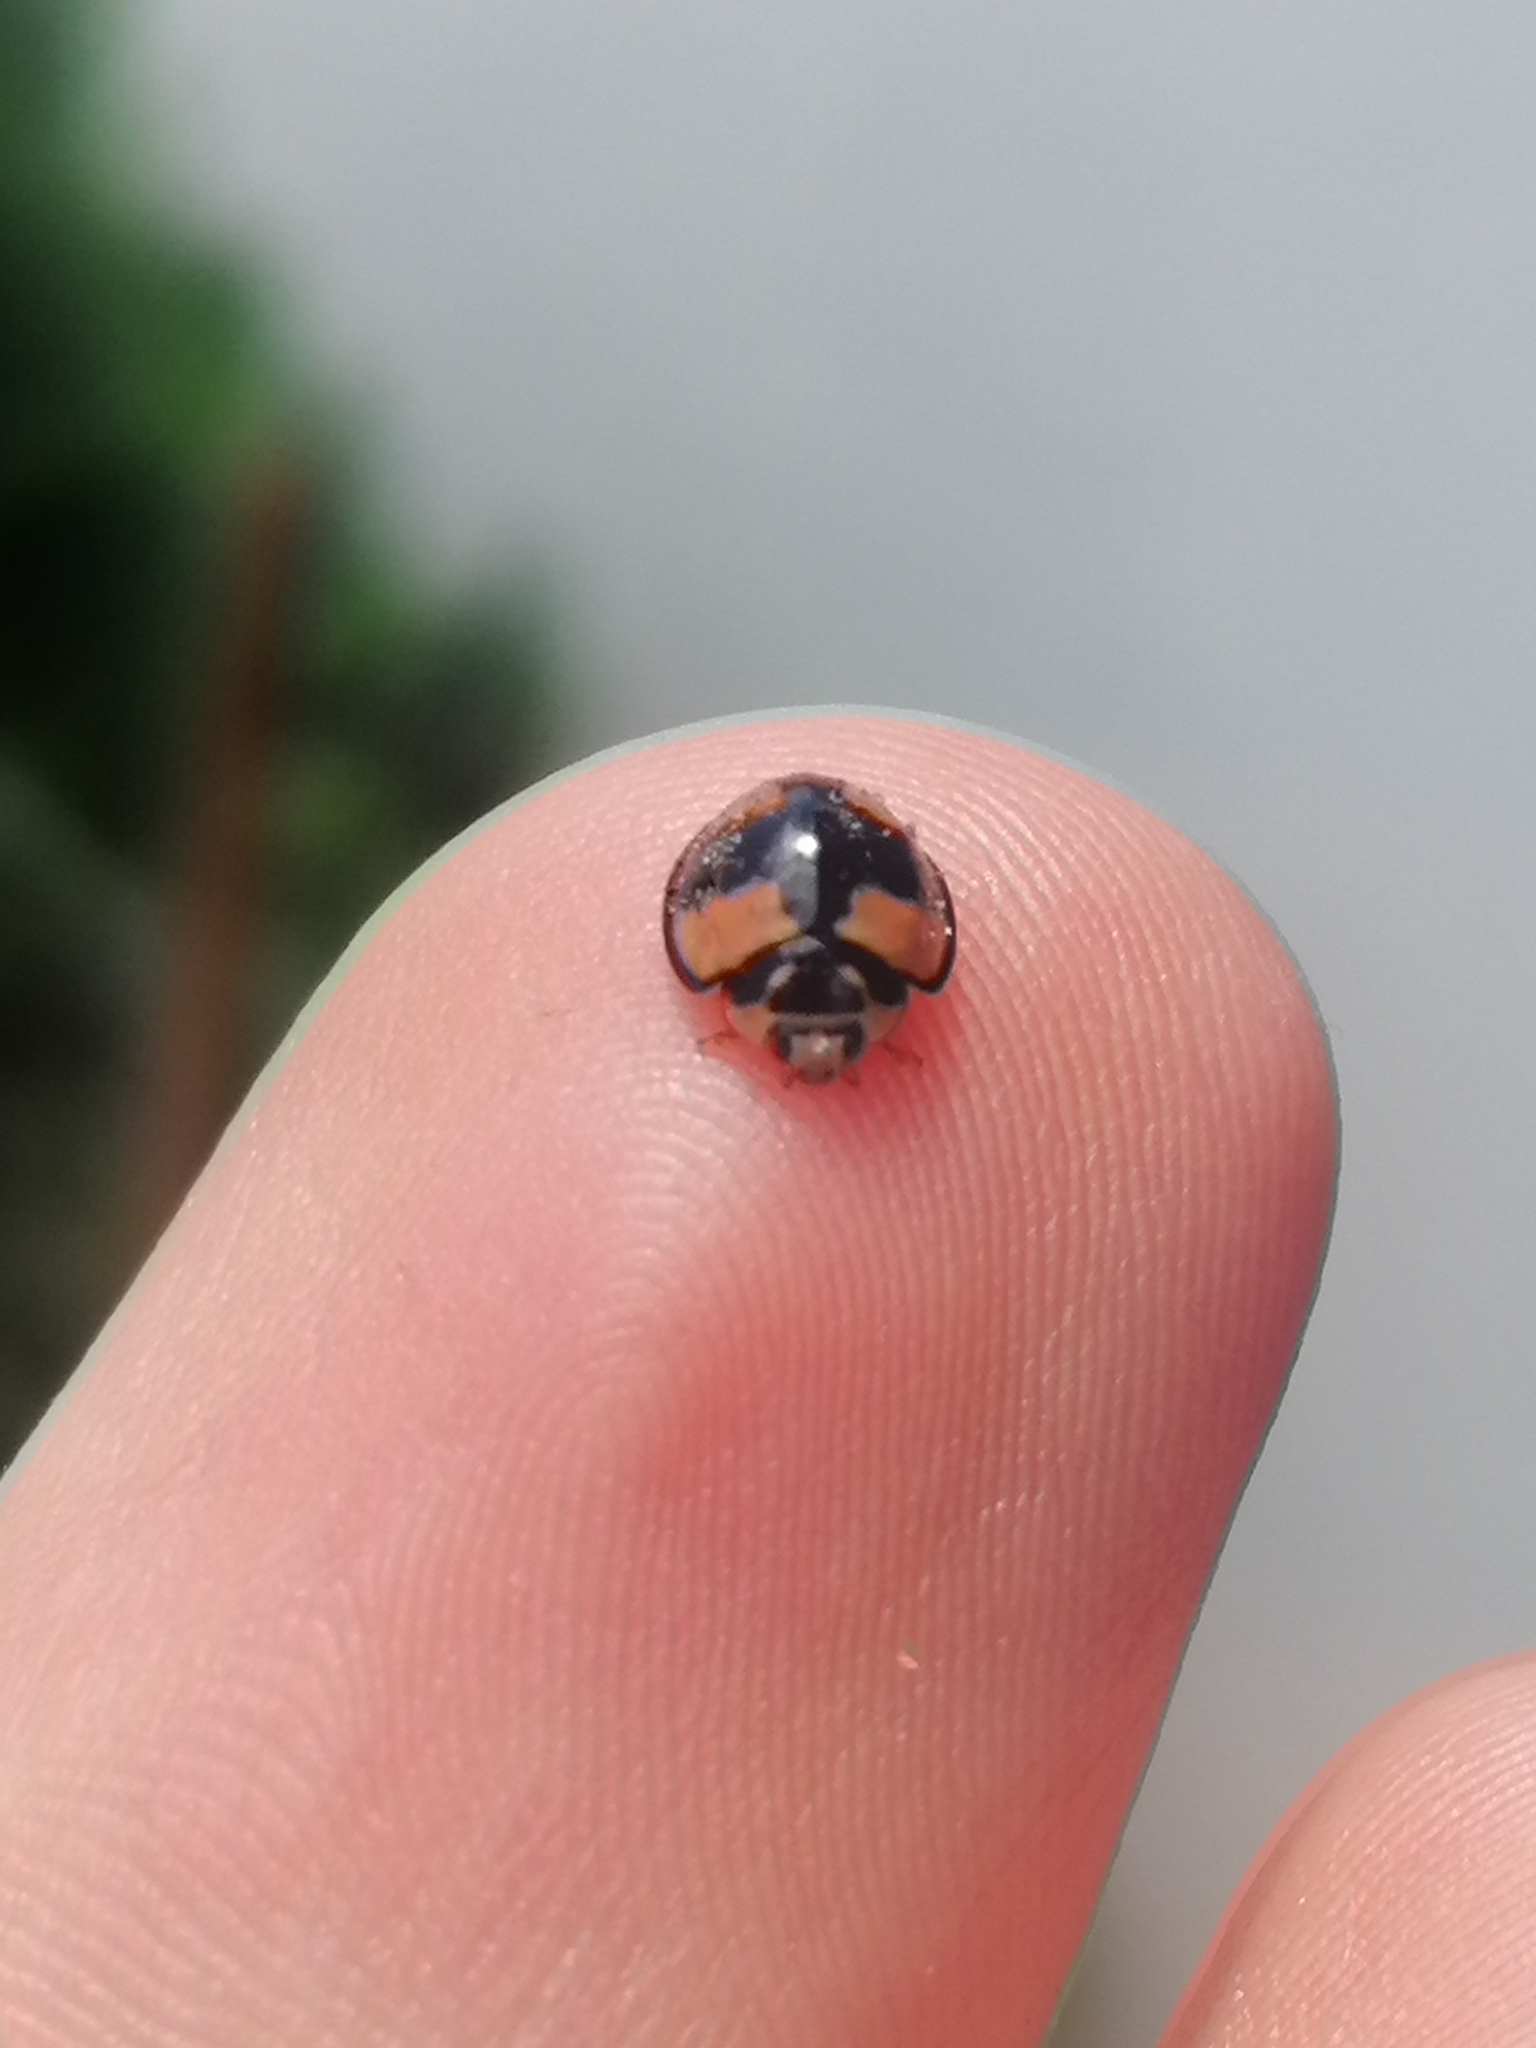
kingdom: Animalia
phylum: Arthropoda
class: Insecta
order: Coleoptera
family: Coccinellidae
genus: Cheilomenes
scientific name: Cheilomenes sexmaculata
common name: Ladybird beetle
